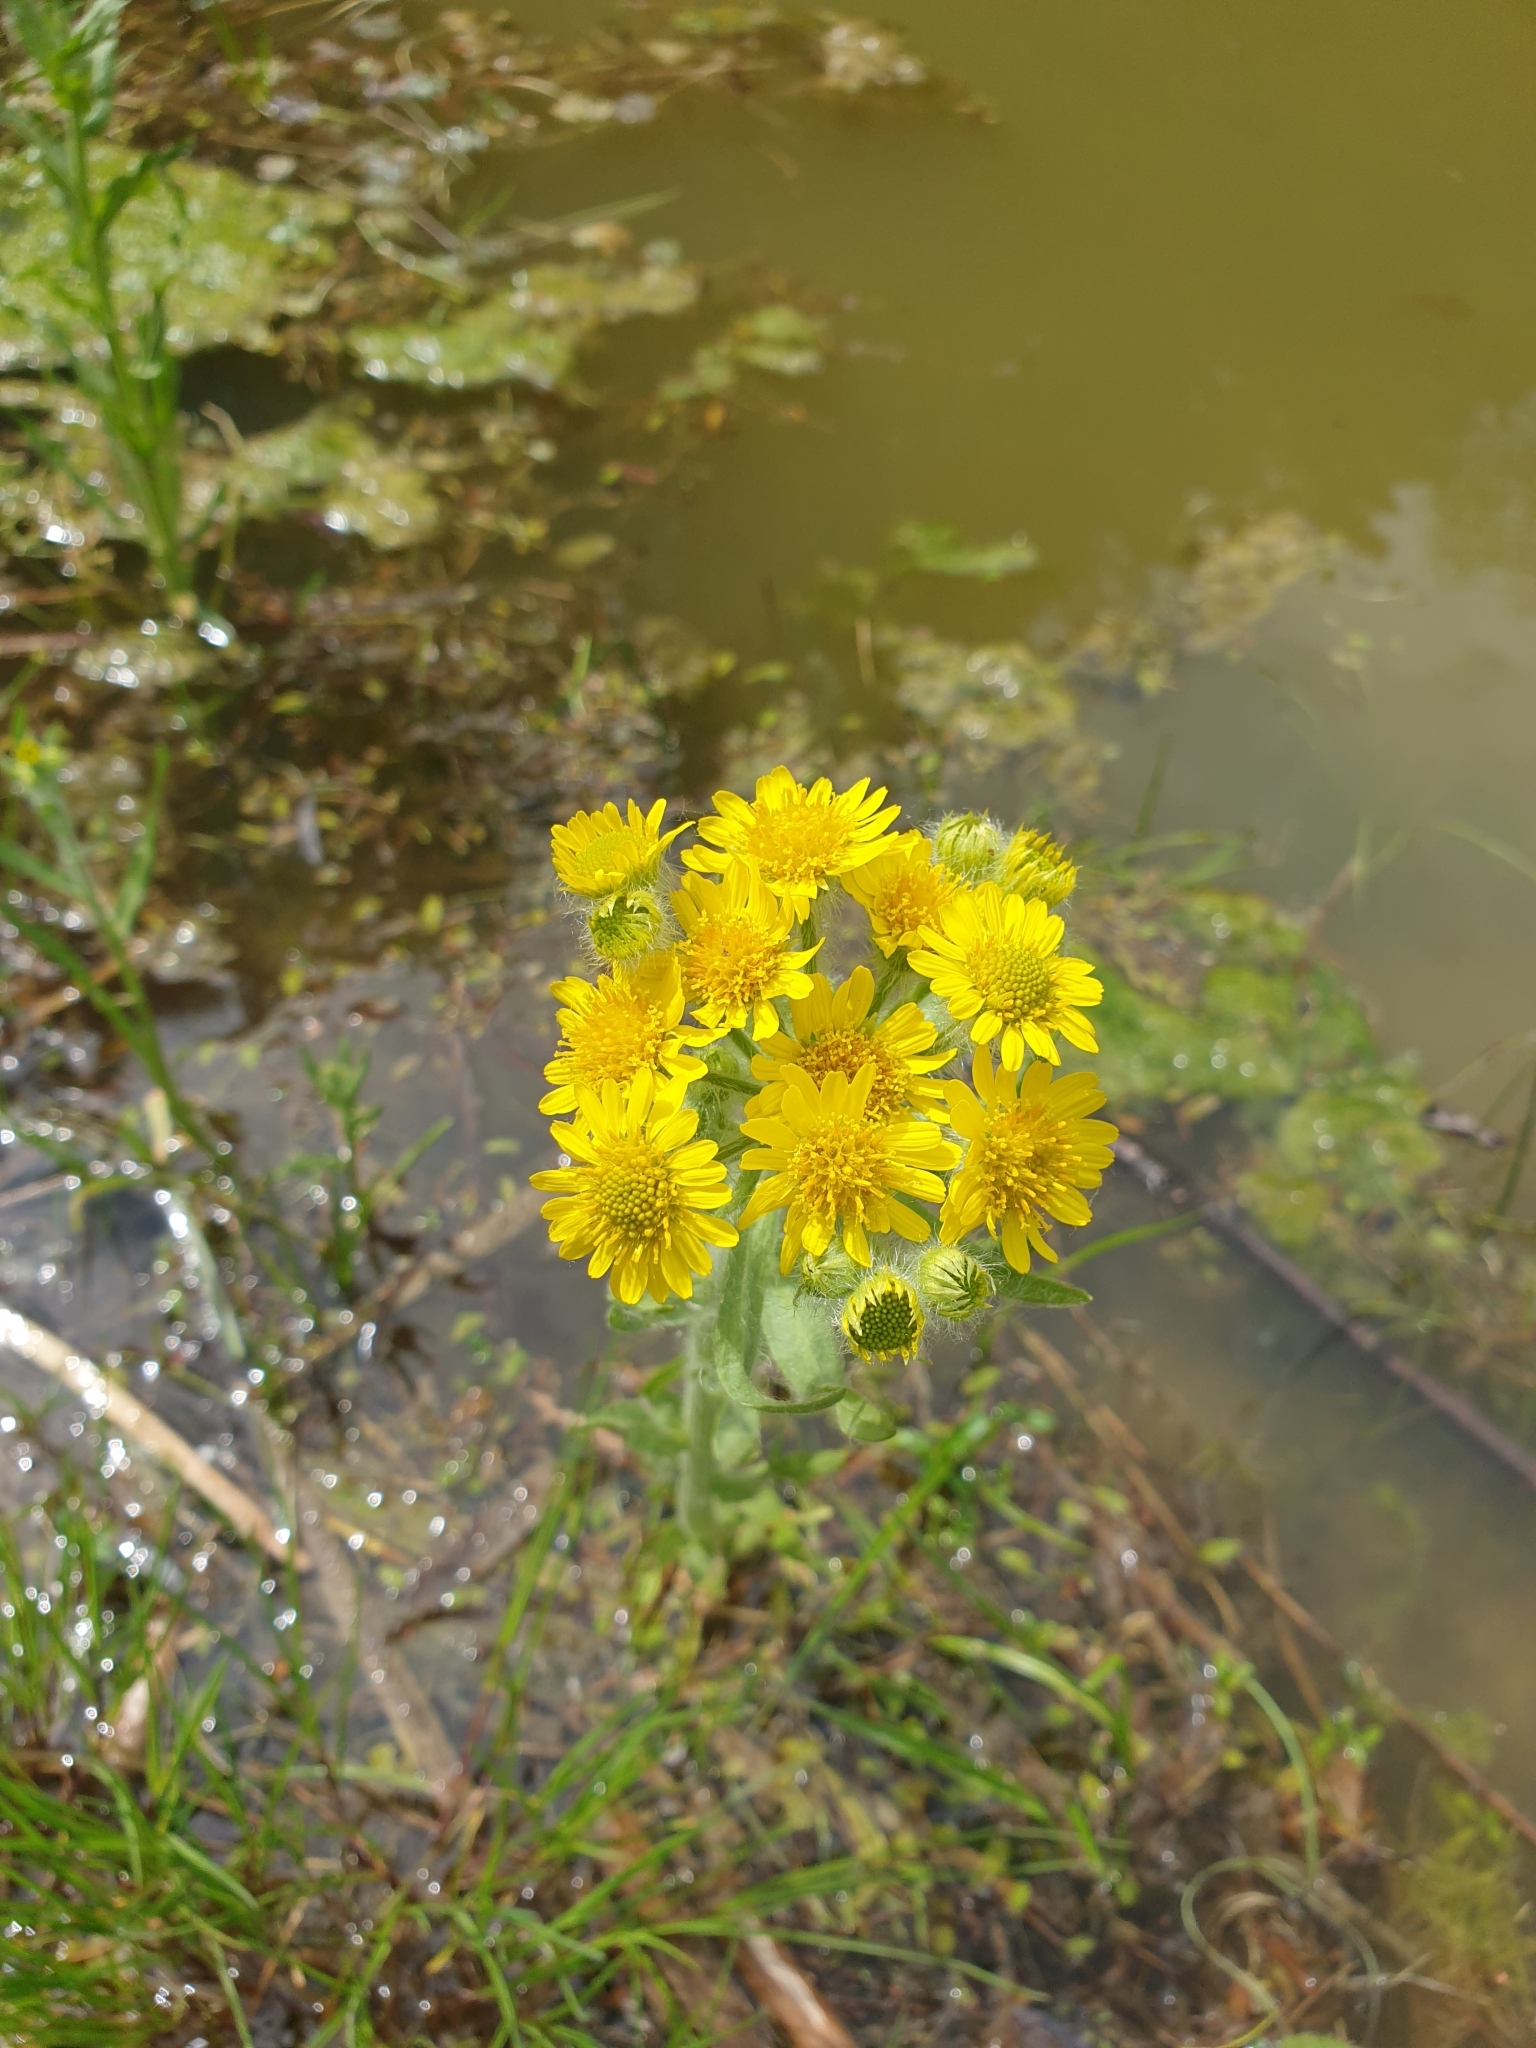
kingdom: Plantae
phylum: Tracheophyta
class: Magnoliopsida
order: Asterales
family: Asteraceae
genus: Tephroseris
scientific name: Tephroseris palustris
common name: Marsh fleawort
